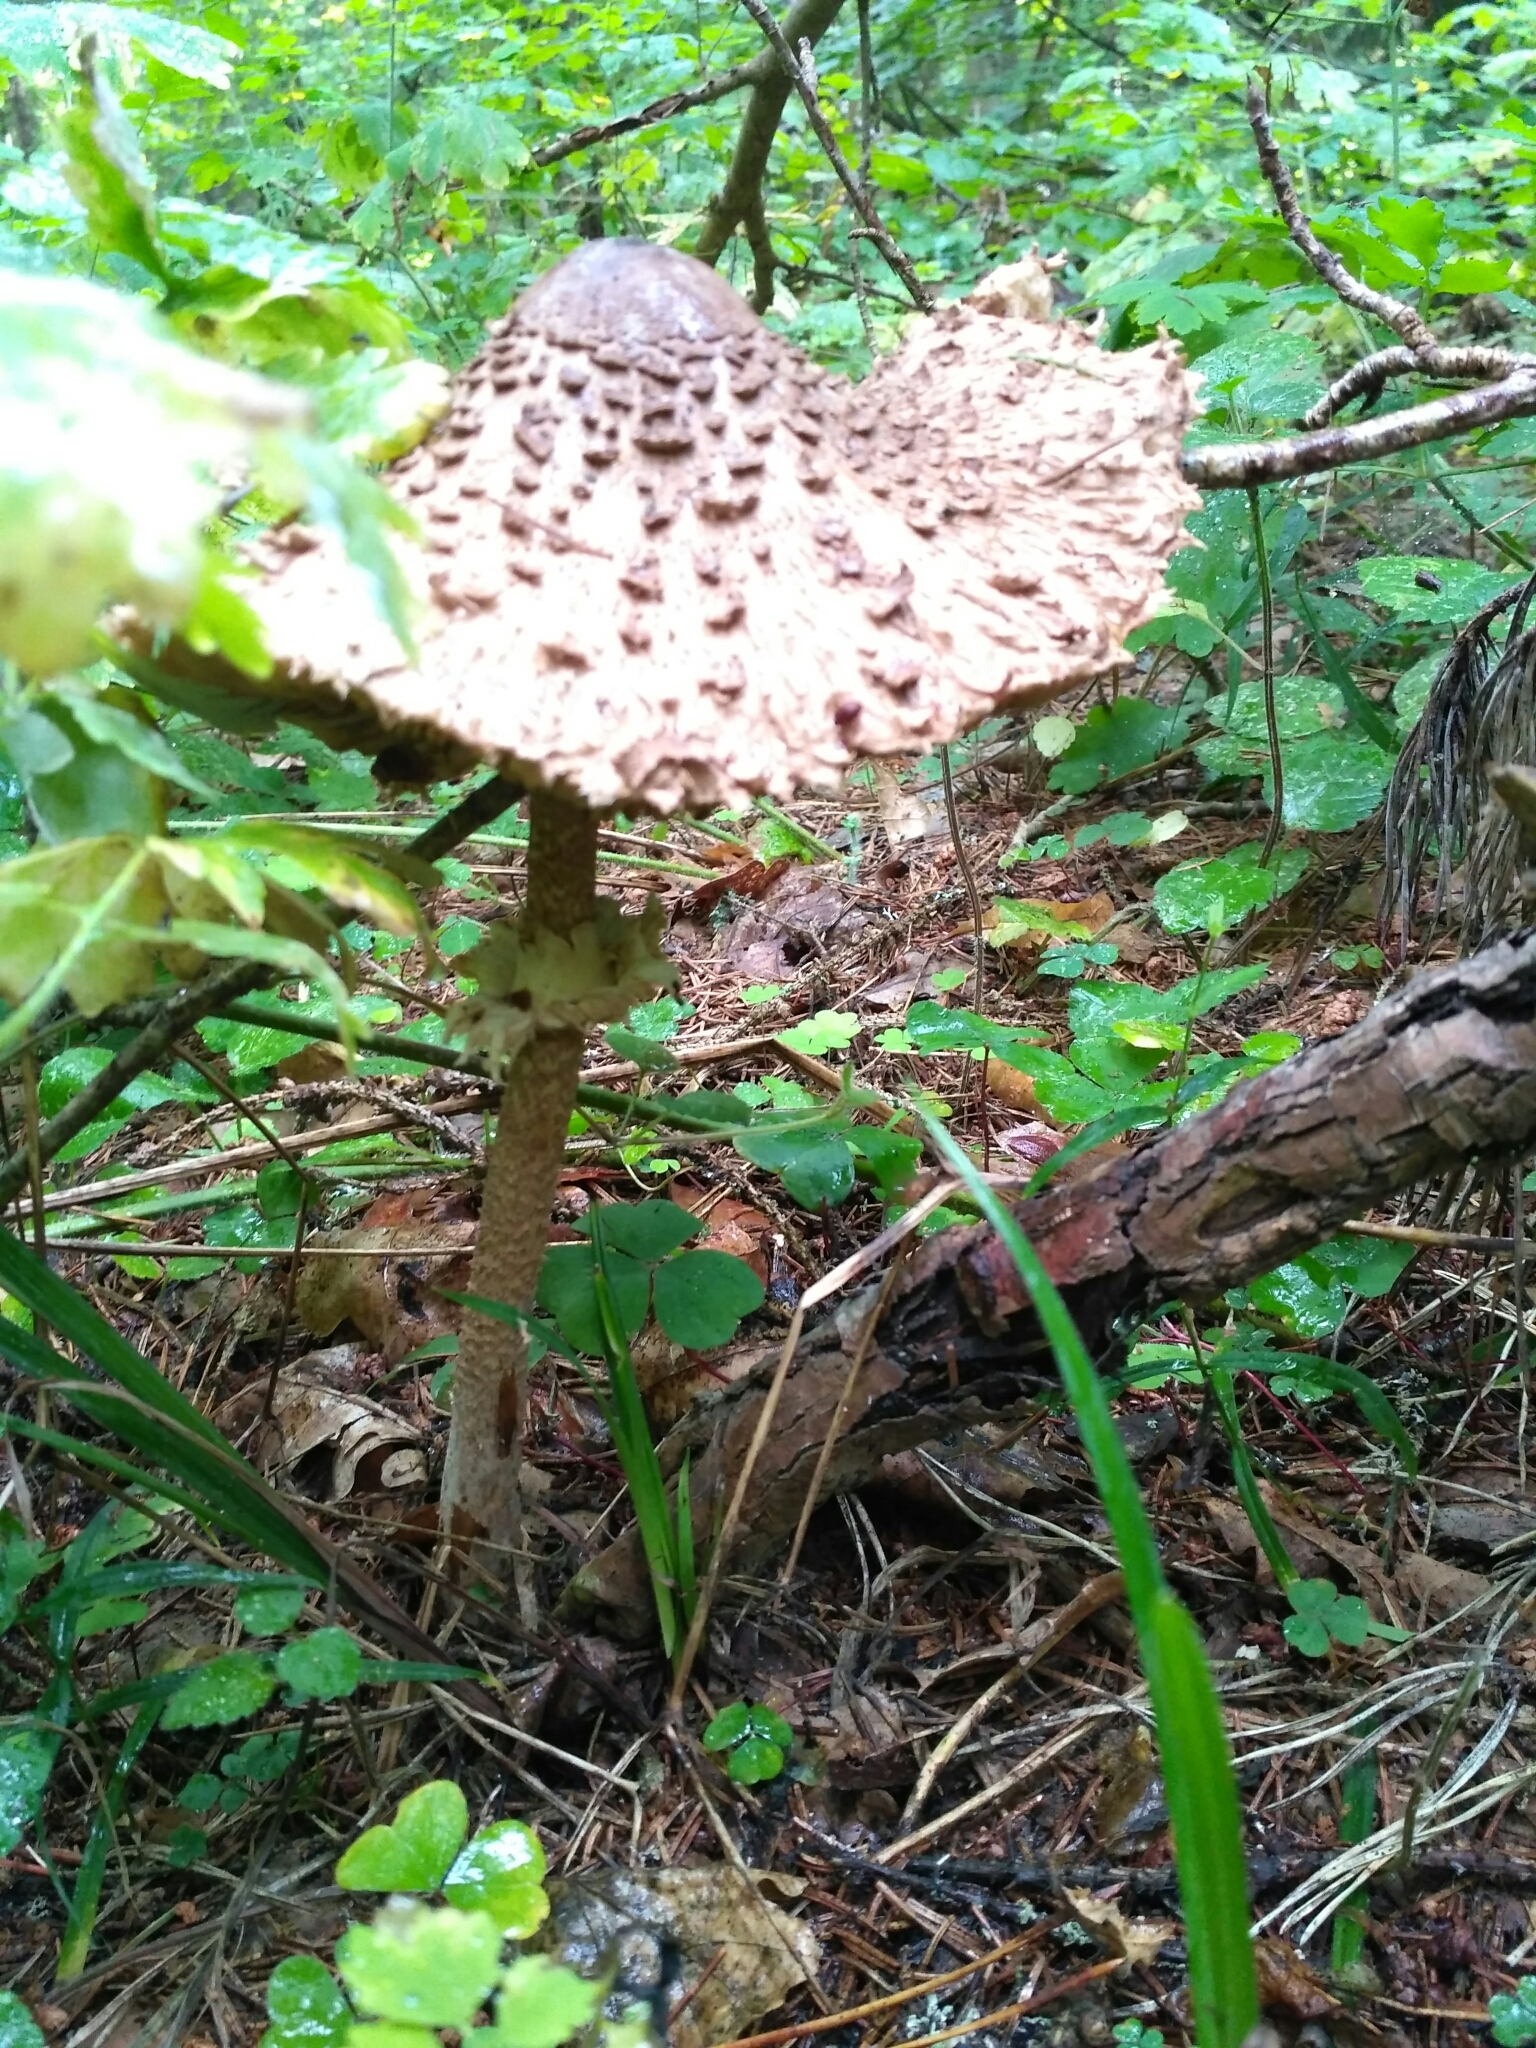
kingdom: Fungi
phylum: Basidiomycota
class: Agaricomycetes
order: Agaricales
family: Agaricaceae
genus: Macrolepiota
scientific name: Macrolepiota procera
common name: Parasol
